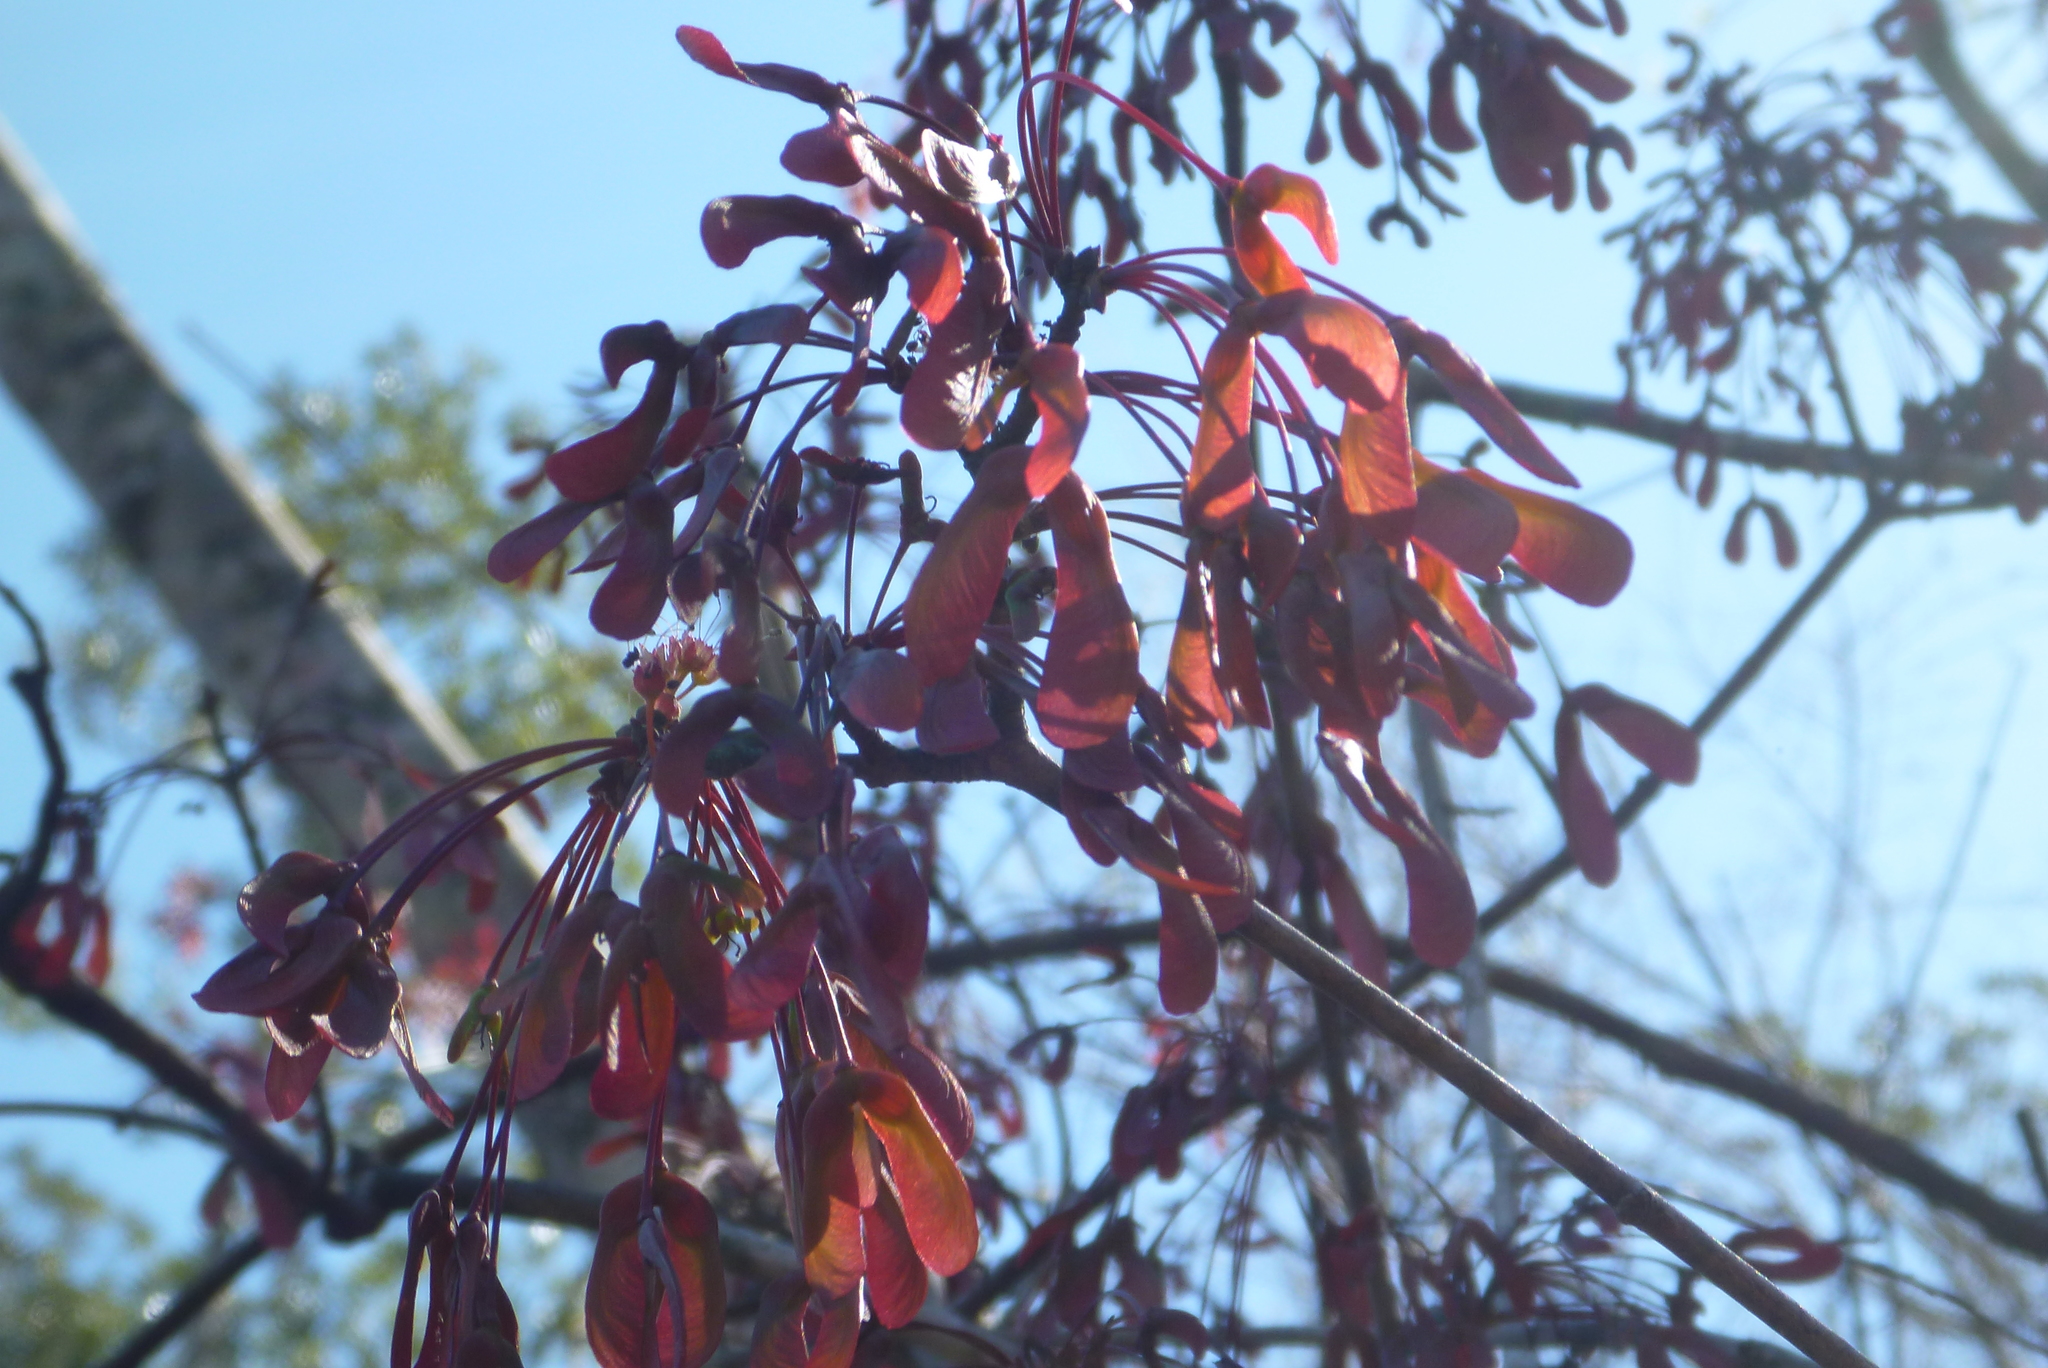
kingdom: Plantae
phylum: Tracheophyta
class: Magnoliopsida
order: Sapindales
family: Sapindaceae
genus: Acer
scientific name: Acer rubrum
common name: Red maple
